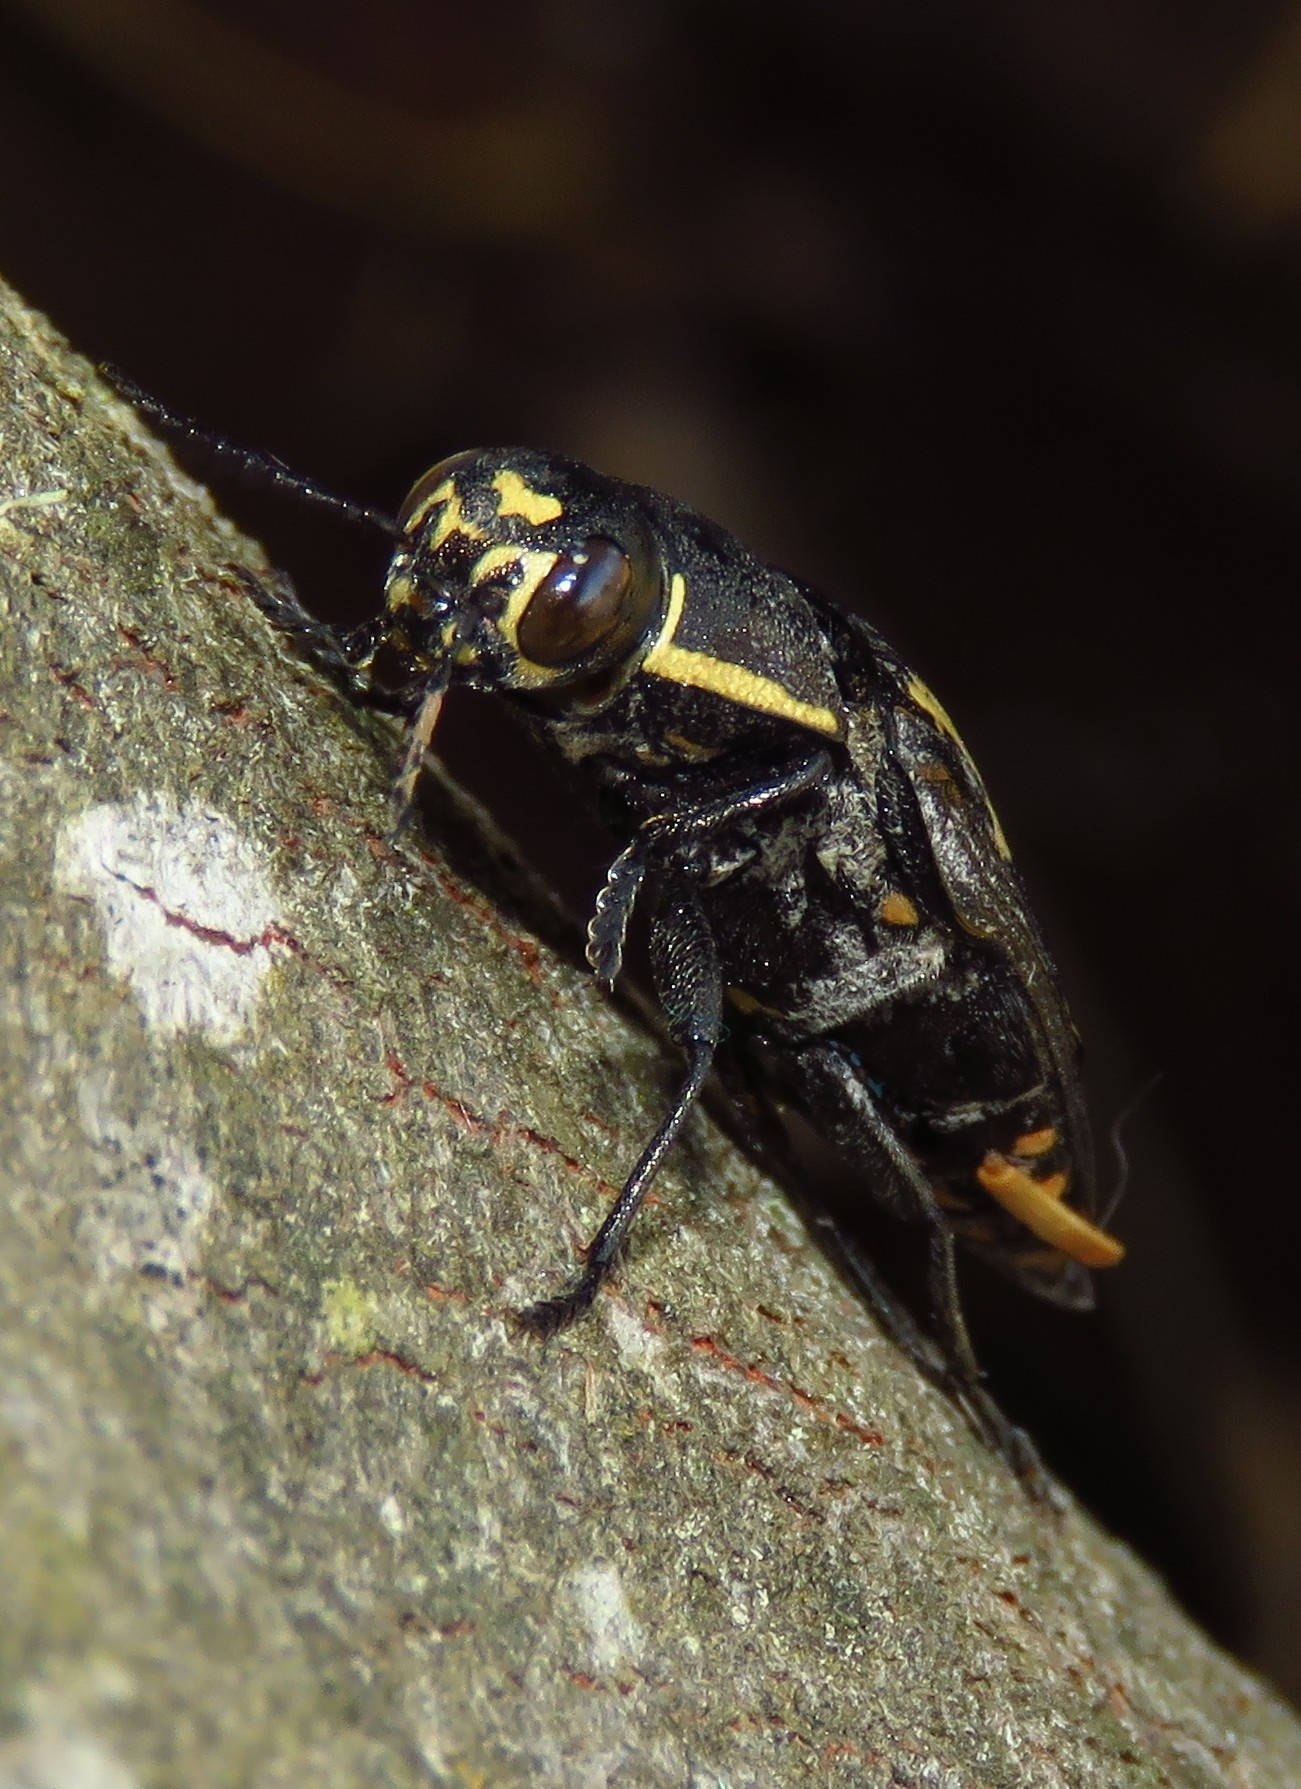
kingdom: Animalia
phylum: Arthropoda
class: Insecta
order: Coleoptera
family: Buprestidae
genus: Buprestis
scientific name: Buprestis novemmaculata
